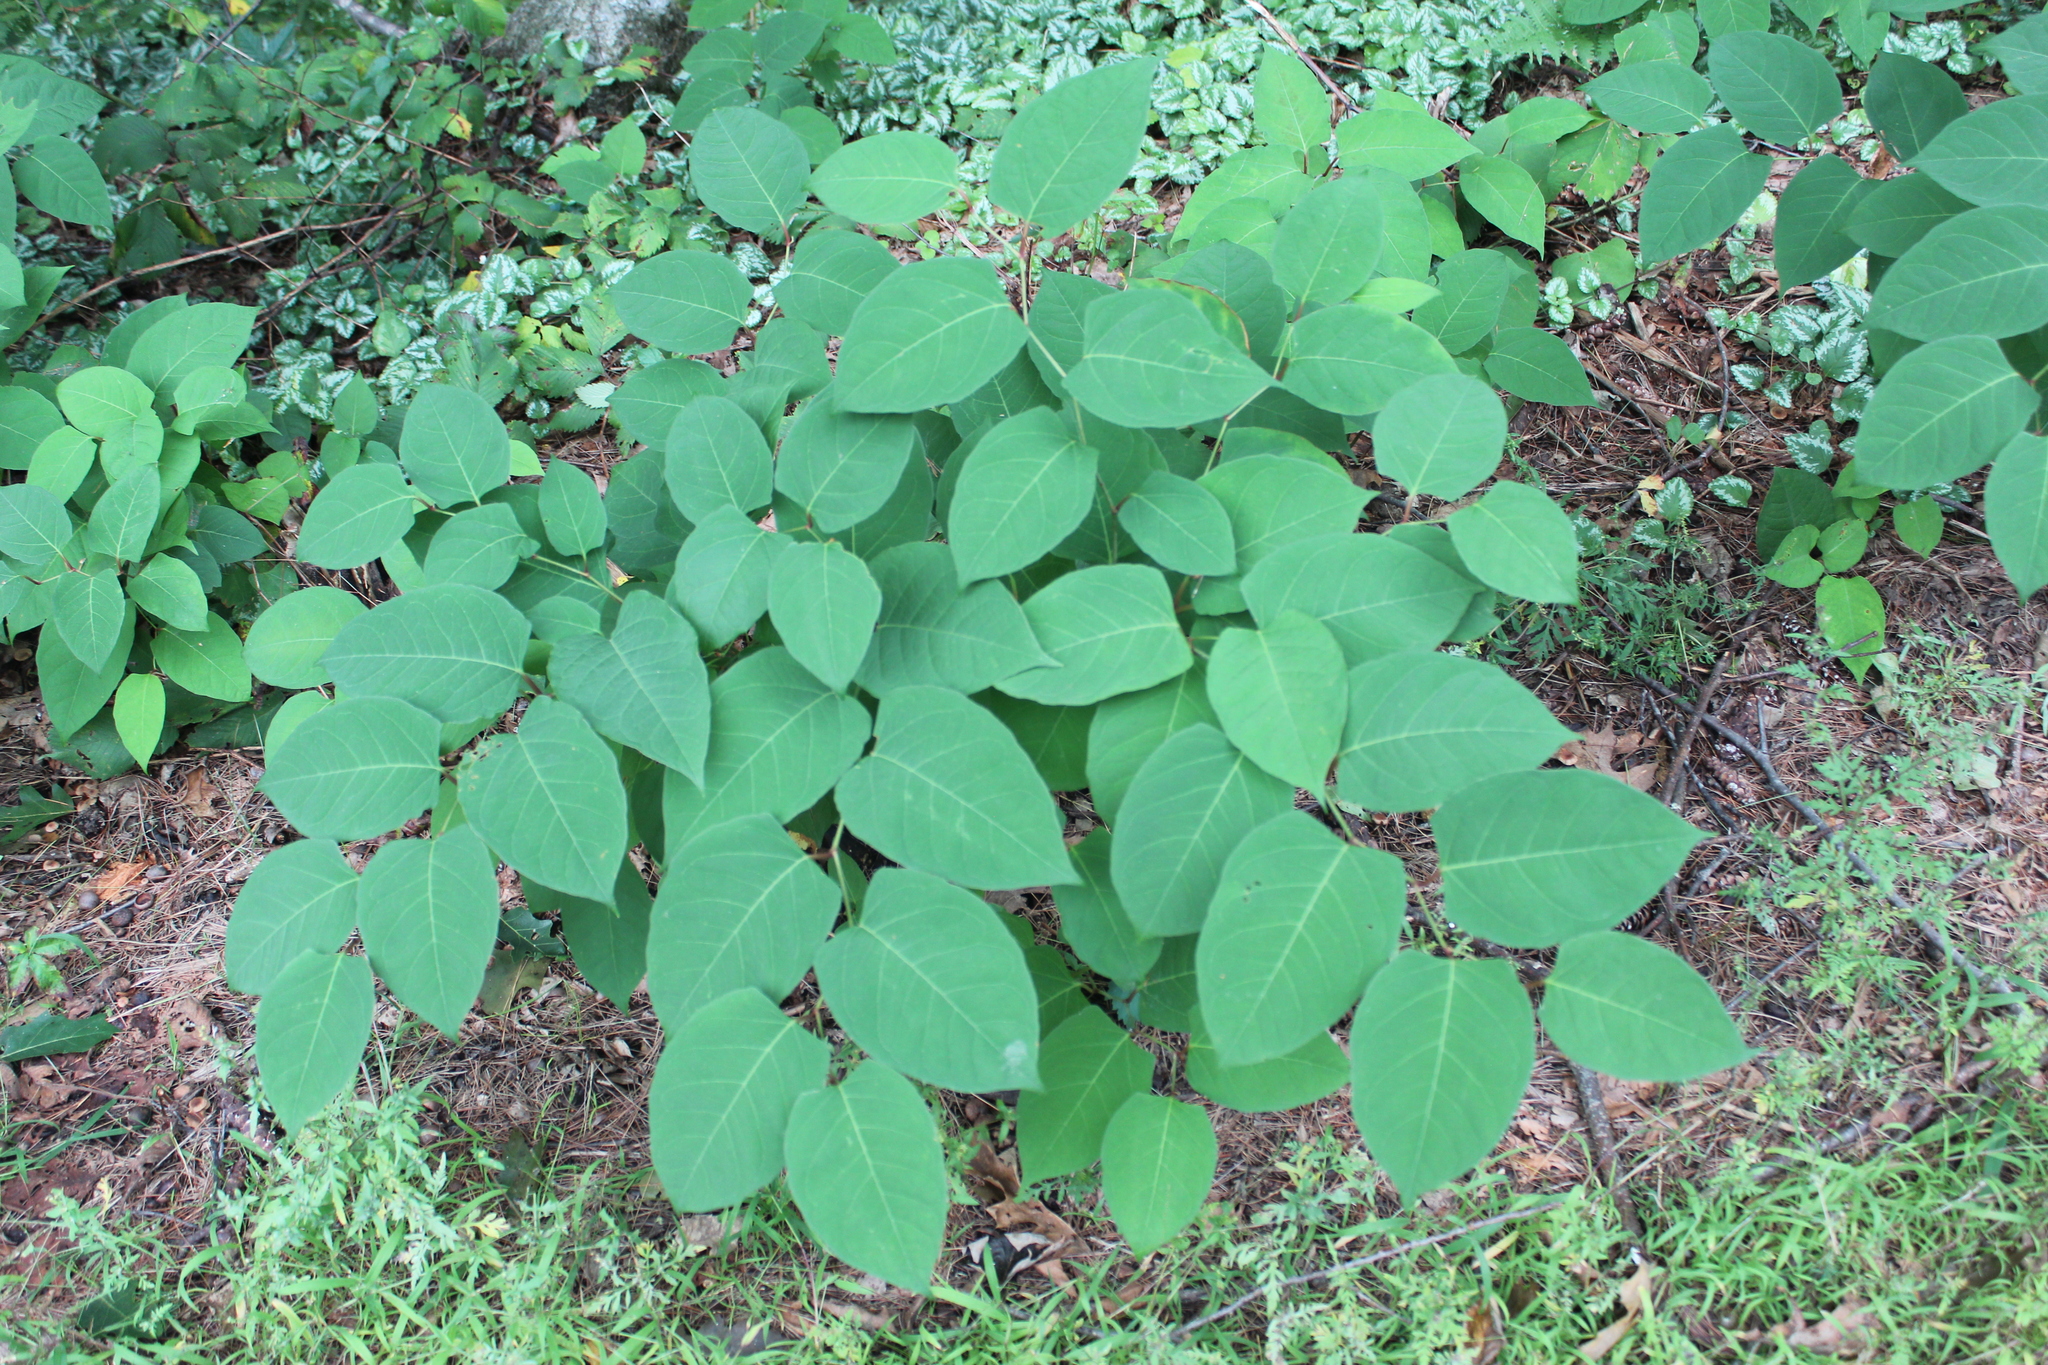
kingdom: Plantae
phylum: Tracheophyta
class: Magnoliopsida
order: Caryophyllales
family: Polygonaceae
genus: Reynoutria
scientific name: Reynoutria japonica
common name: Japanese knotweed
